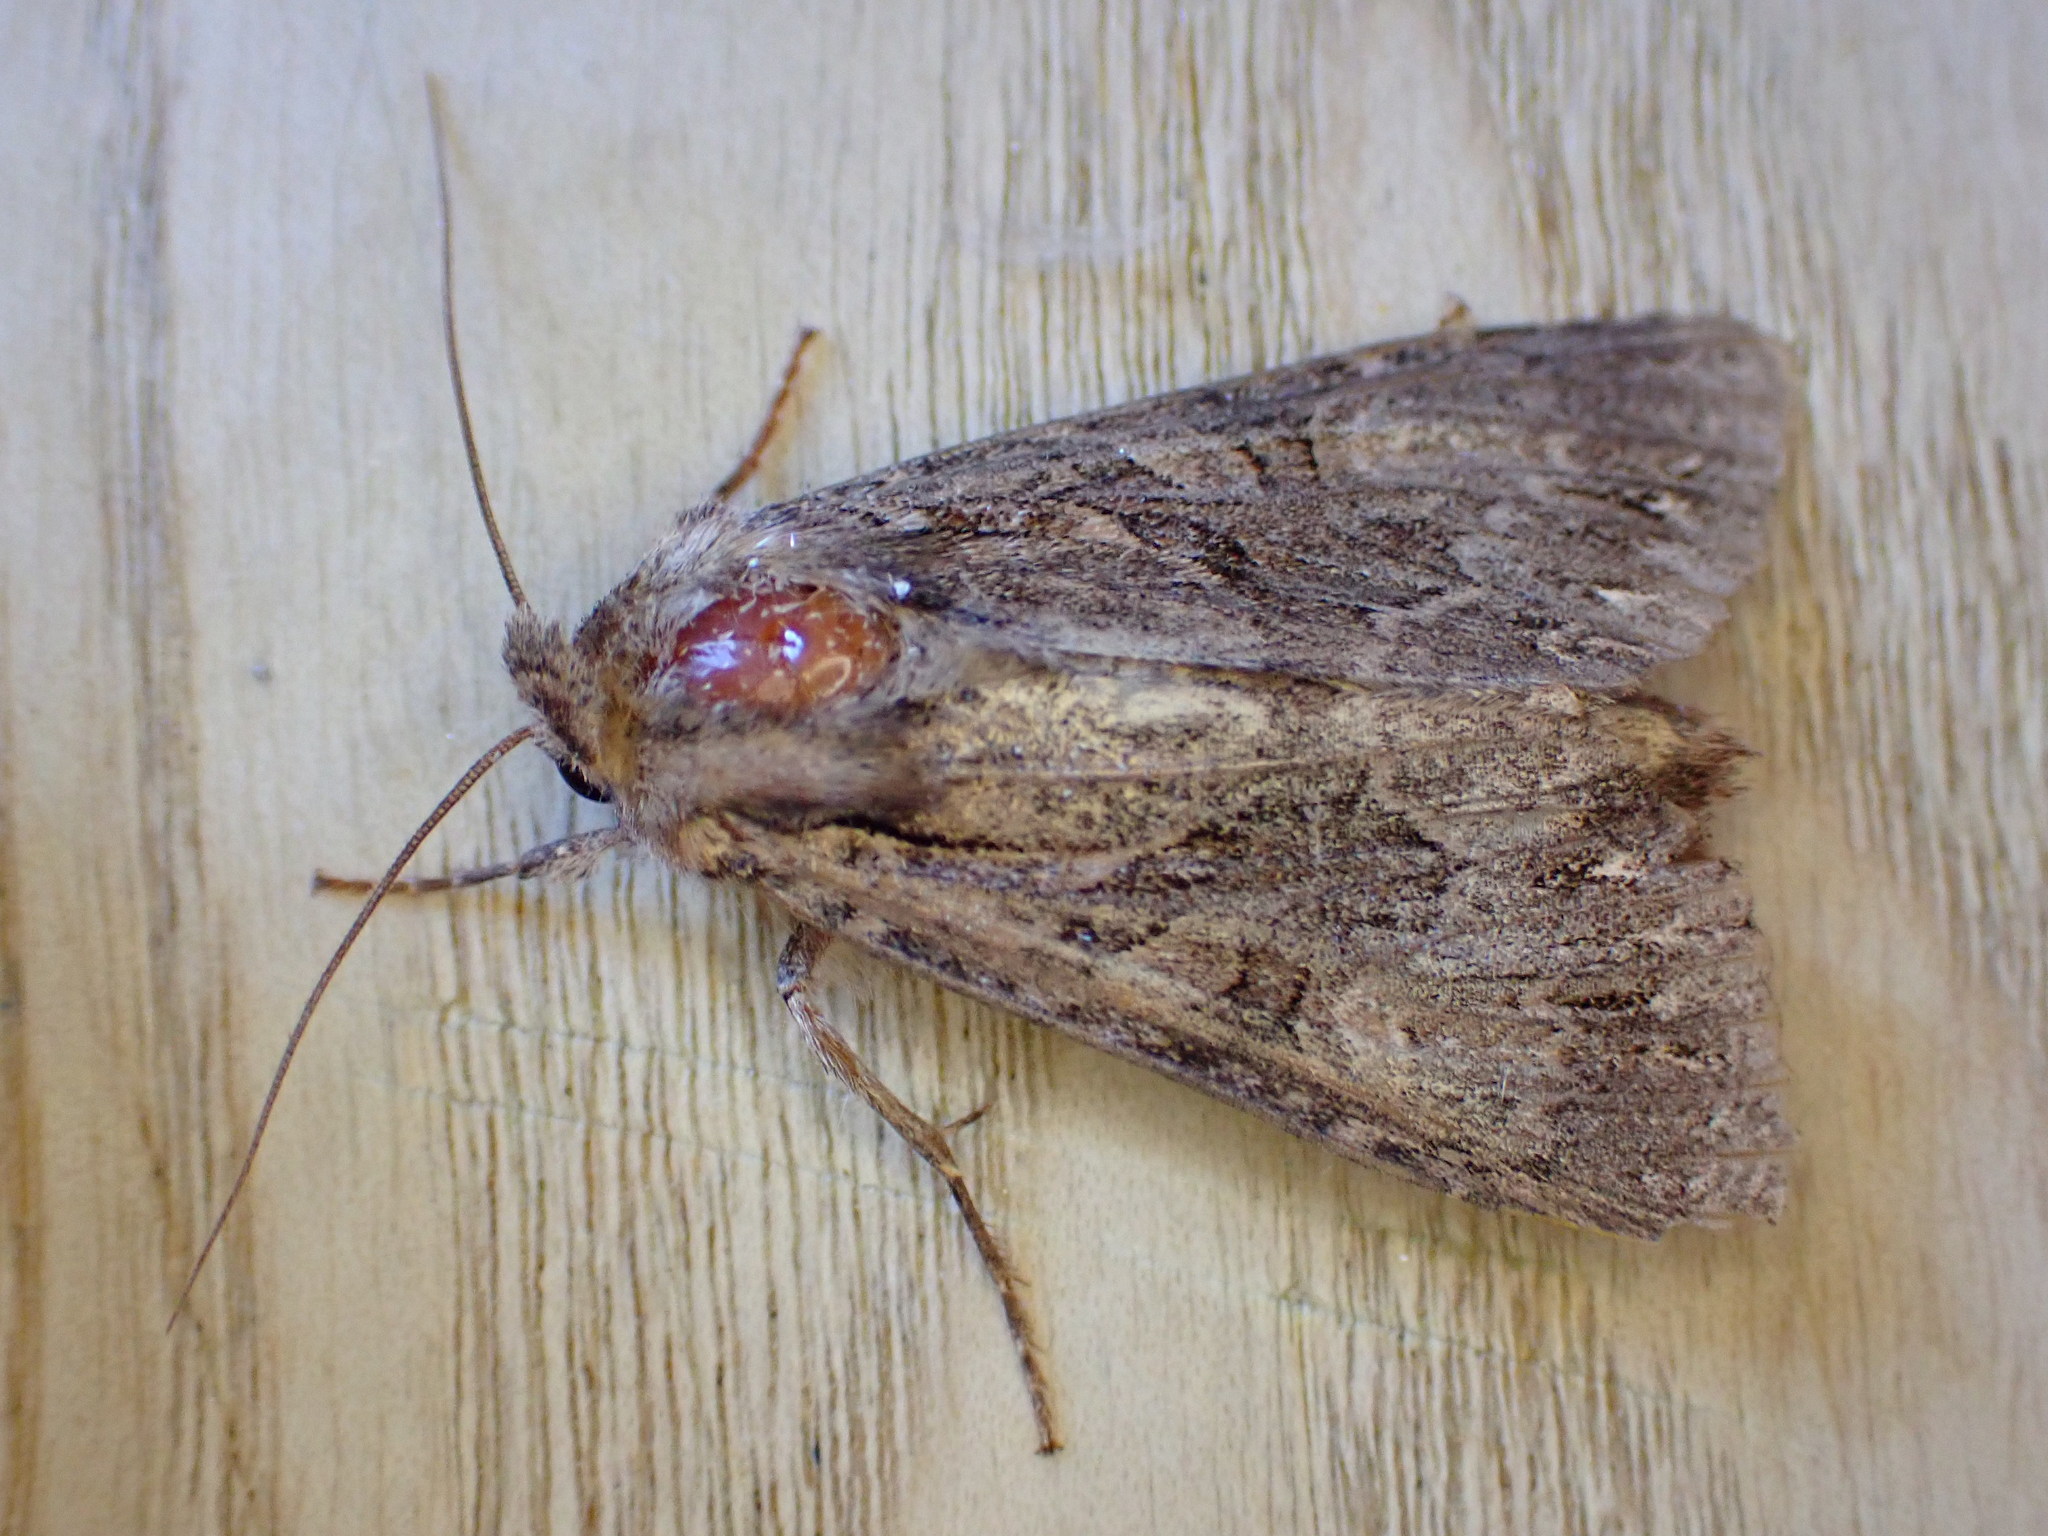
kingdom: Animalia
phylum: Arthropoda
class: Insecta
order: Lepidoptera
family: Noctuidae
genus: Apamea
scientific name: Apamea monoglypha
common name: Dark arches
